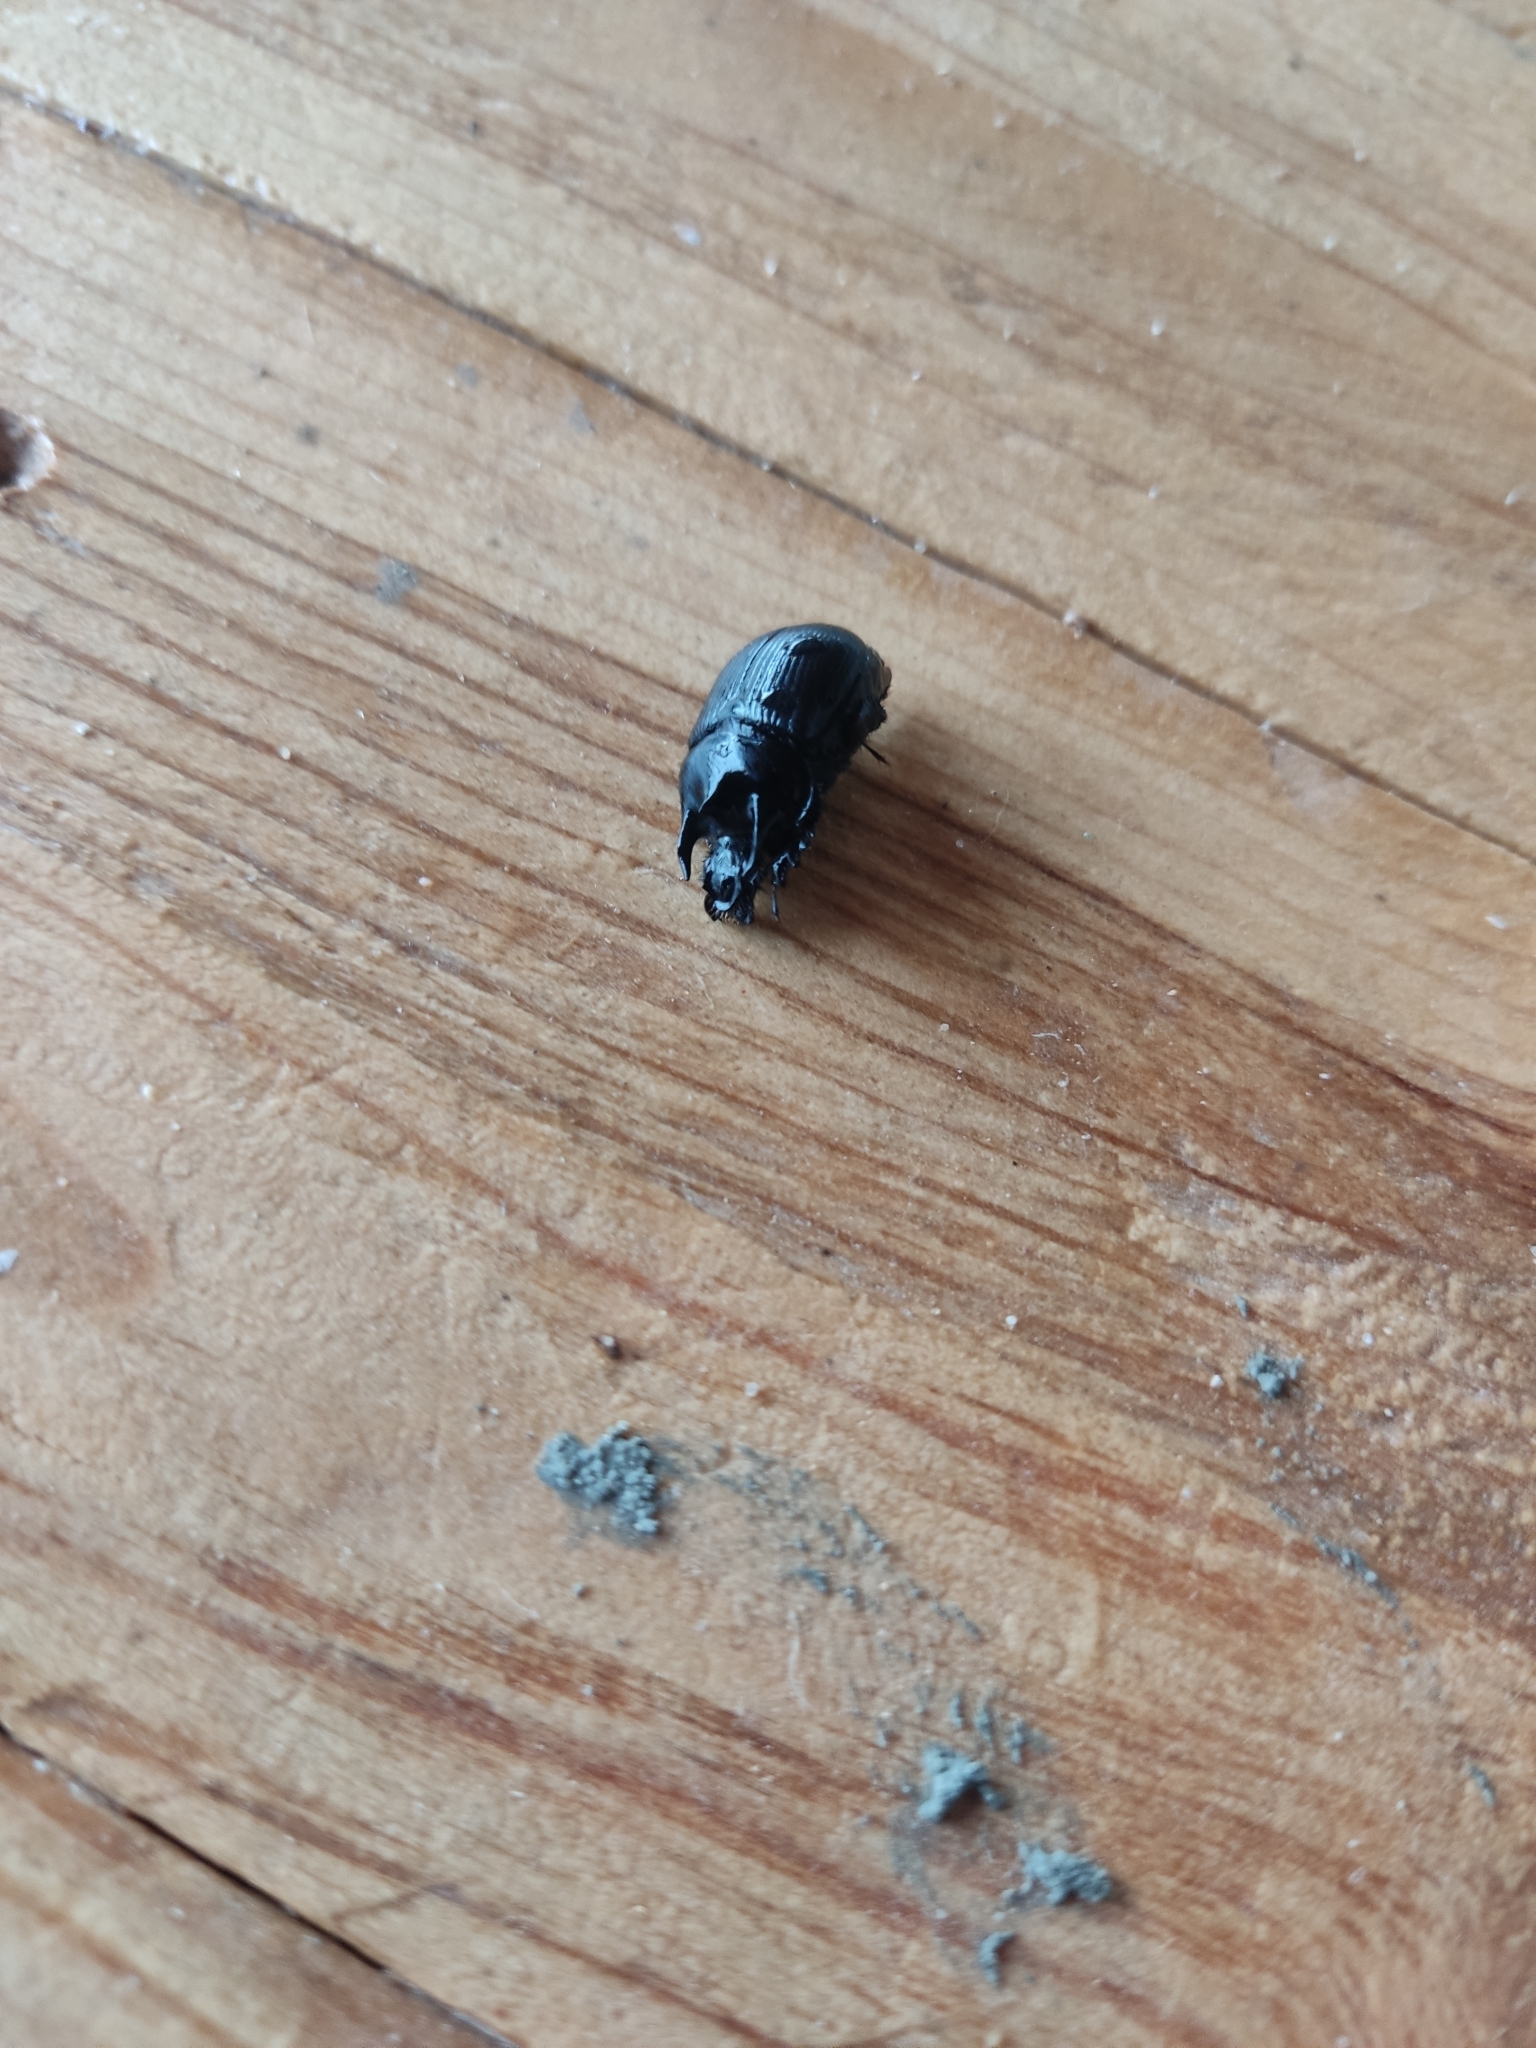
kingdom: Animalia
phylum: Arthropoda
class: Insecta
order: Coleoptera
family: Geotrupidae
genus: Typhaeus
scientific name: Typhaeus typhoeus
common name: Minotaur beetle
